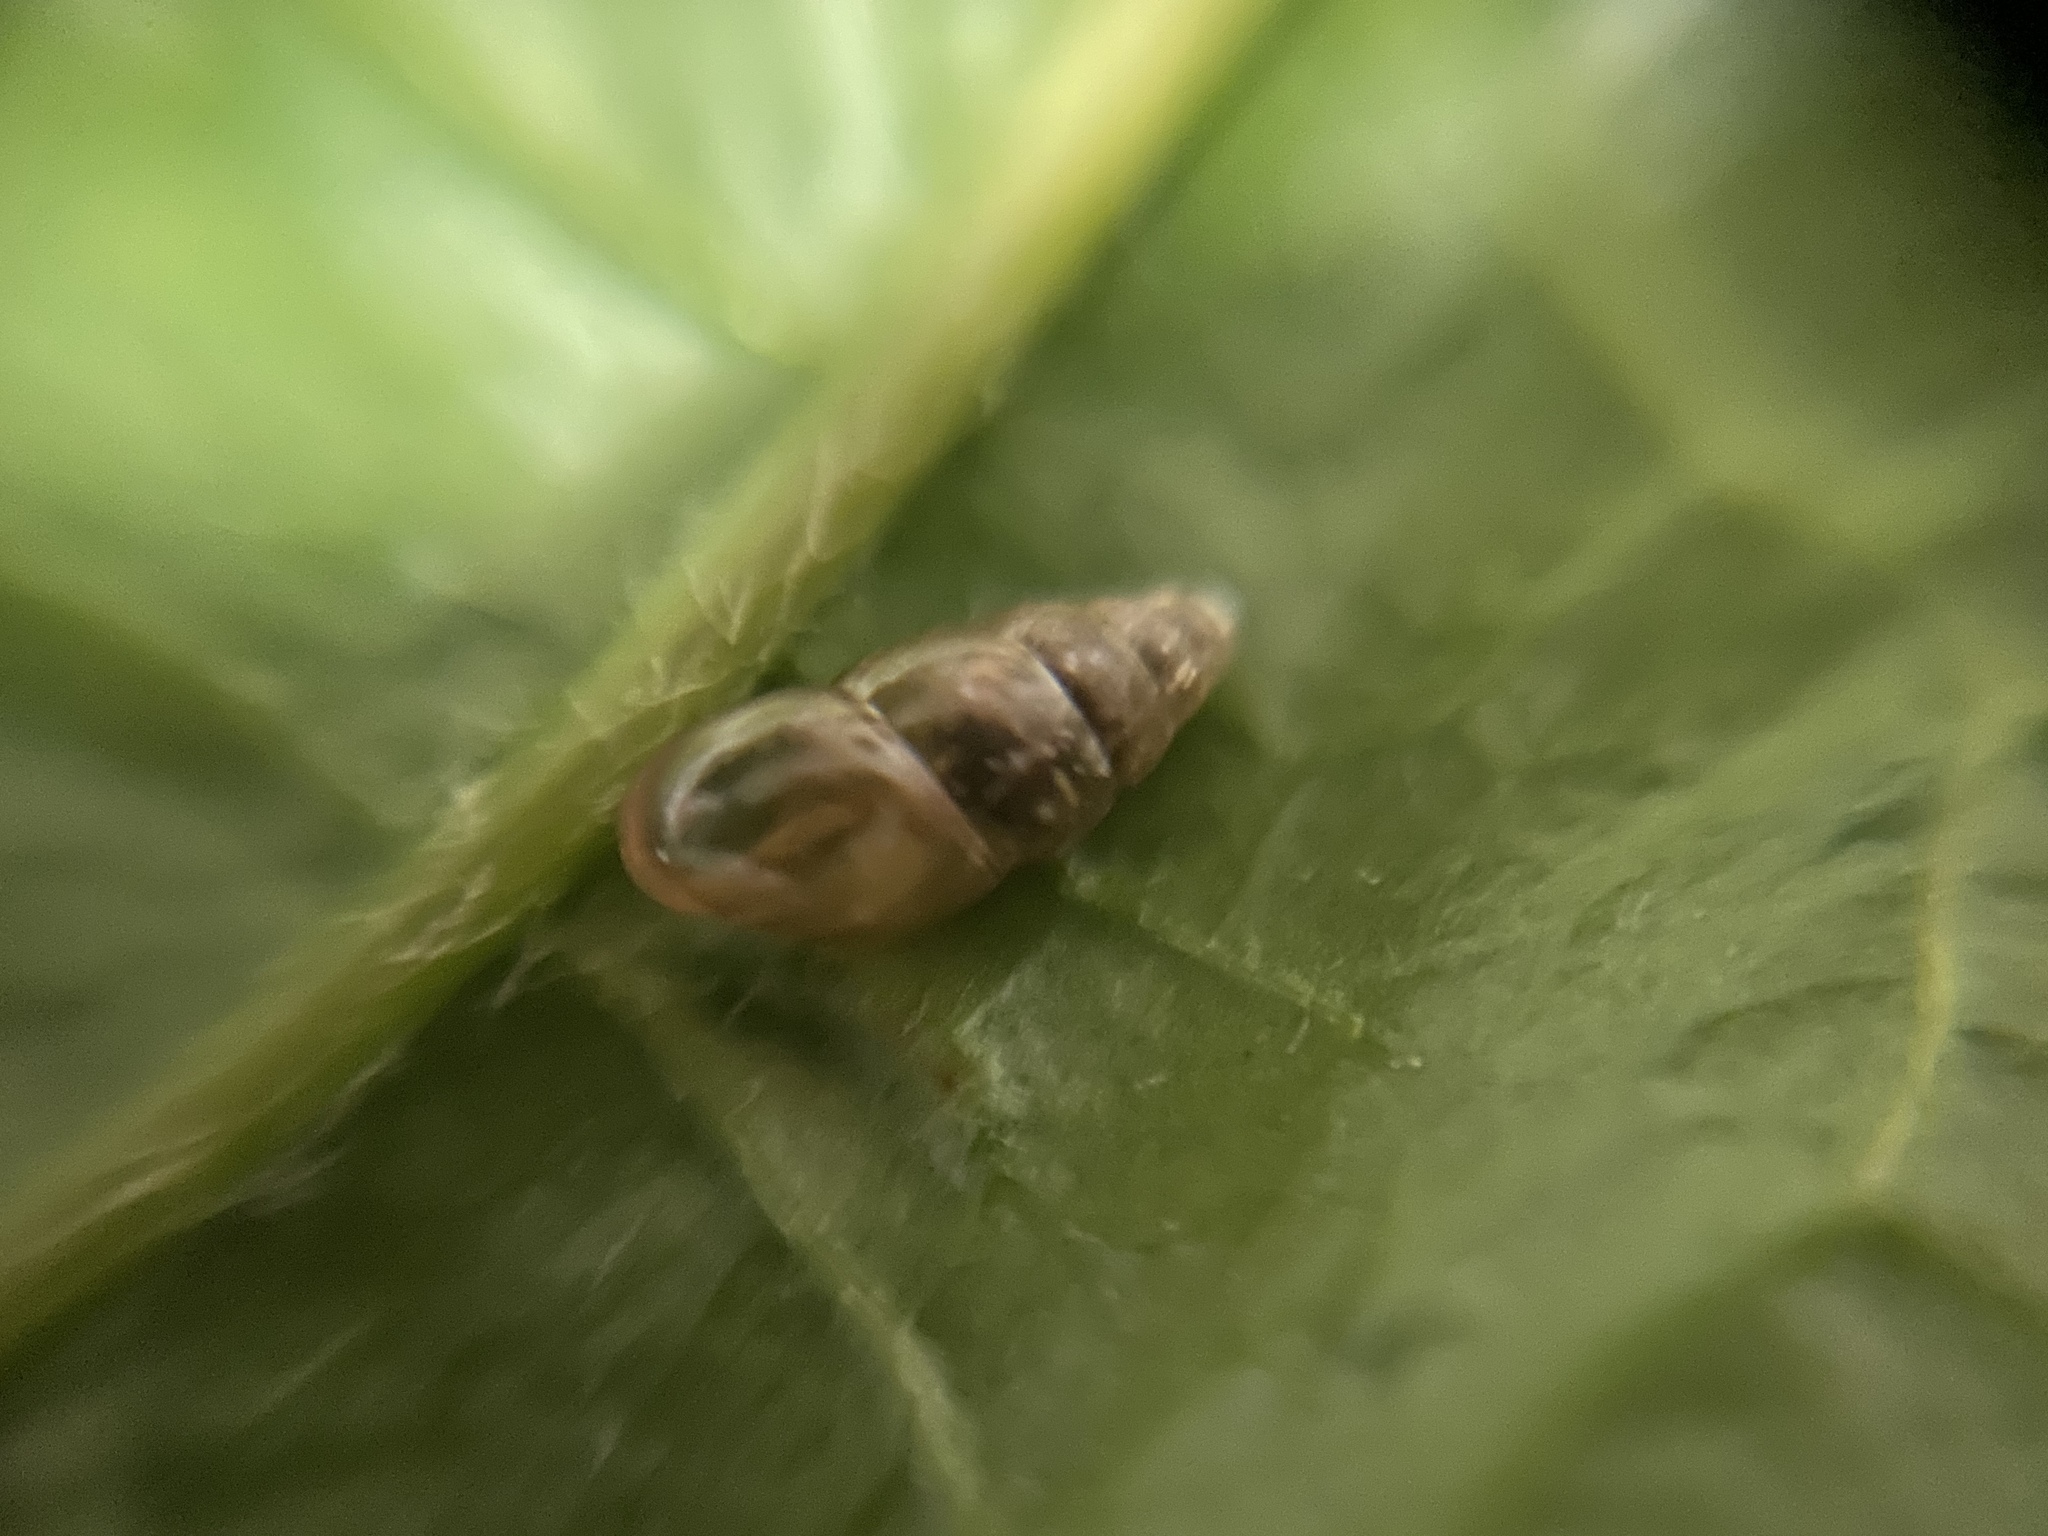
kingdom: Animalia
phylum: Mollusca
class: Gastropoda
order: Stylommatophora
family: Cochlicopidae
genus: Cochlicopa
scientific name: Cochlicopa lubrica
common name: Glossy pillar snail
